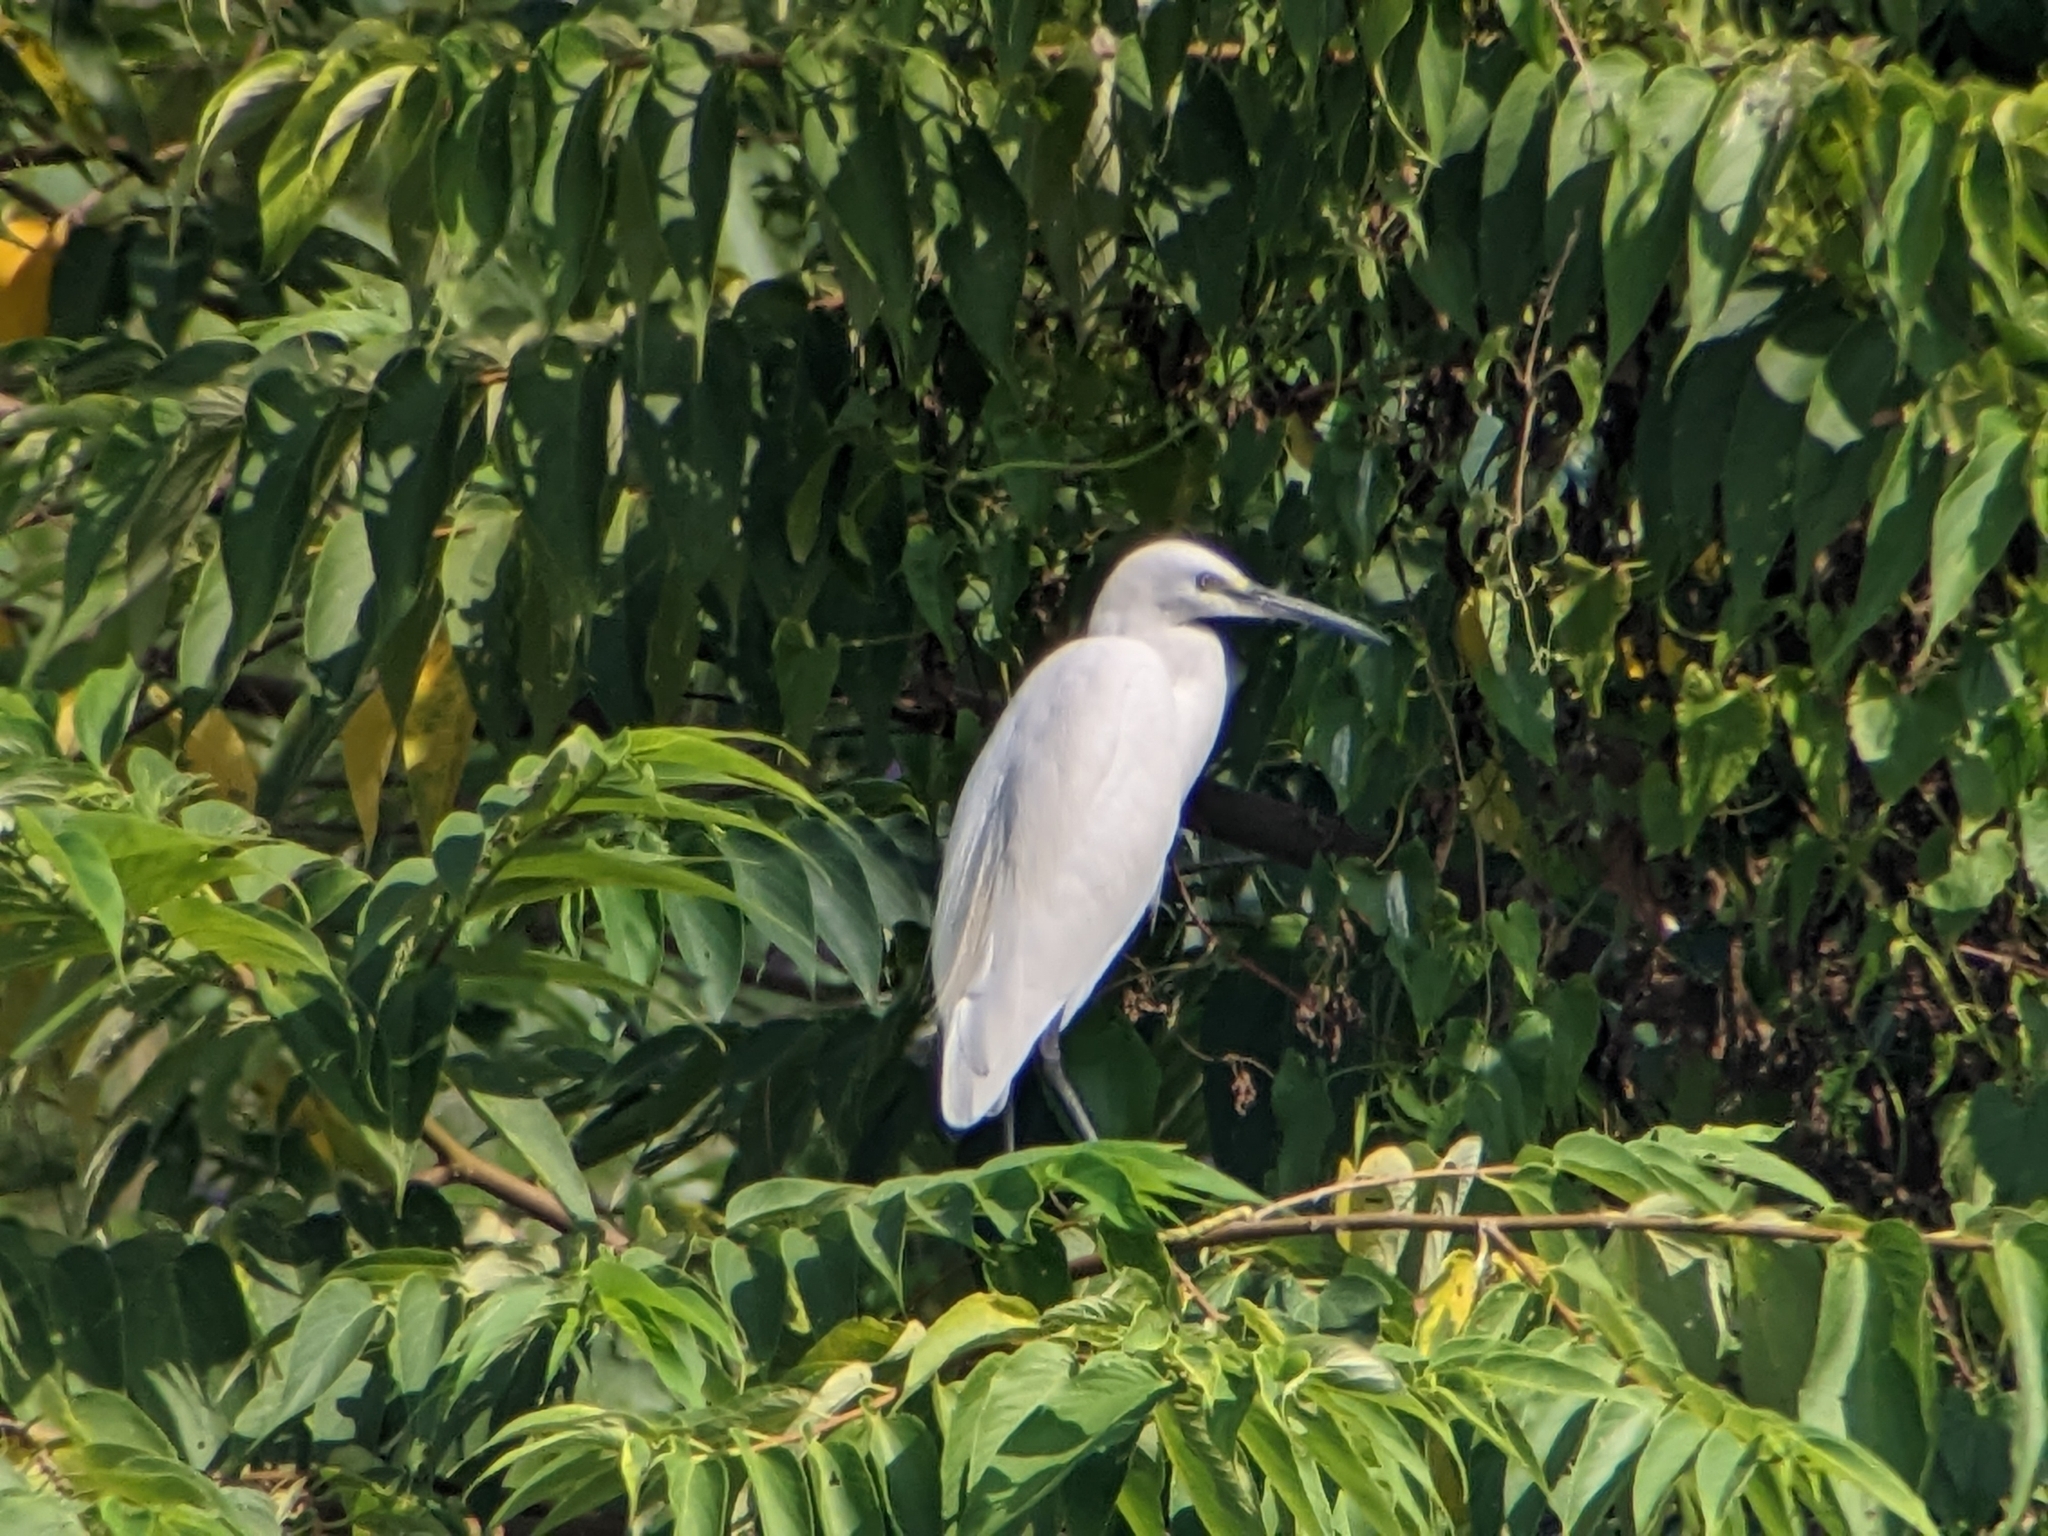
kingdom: Animalia
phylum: Chordata
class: Aves
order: Pelecaniformes
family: Ardeidae
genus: Egretta
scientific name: Egretta garzetta
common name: Little egret
